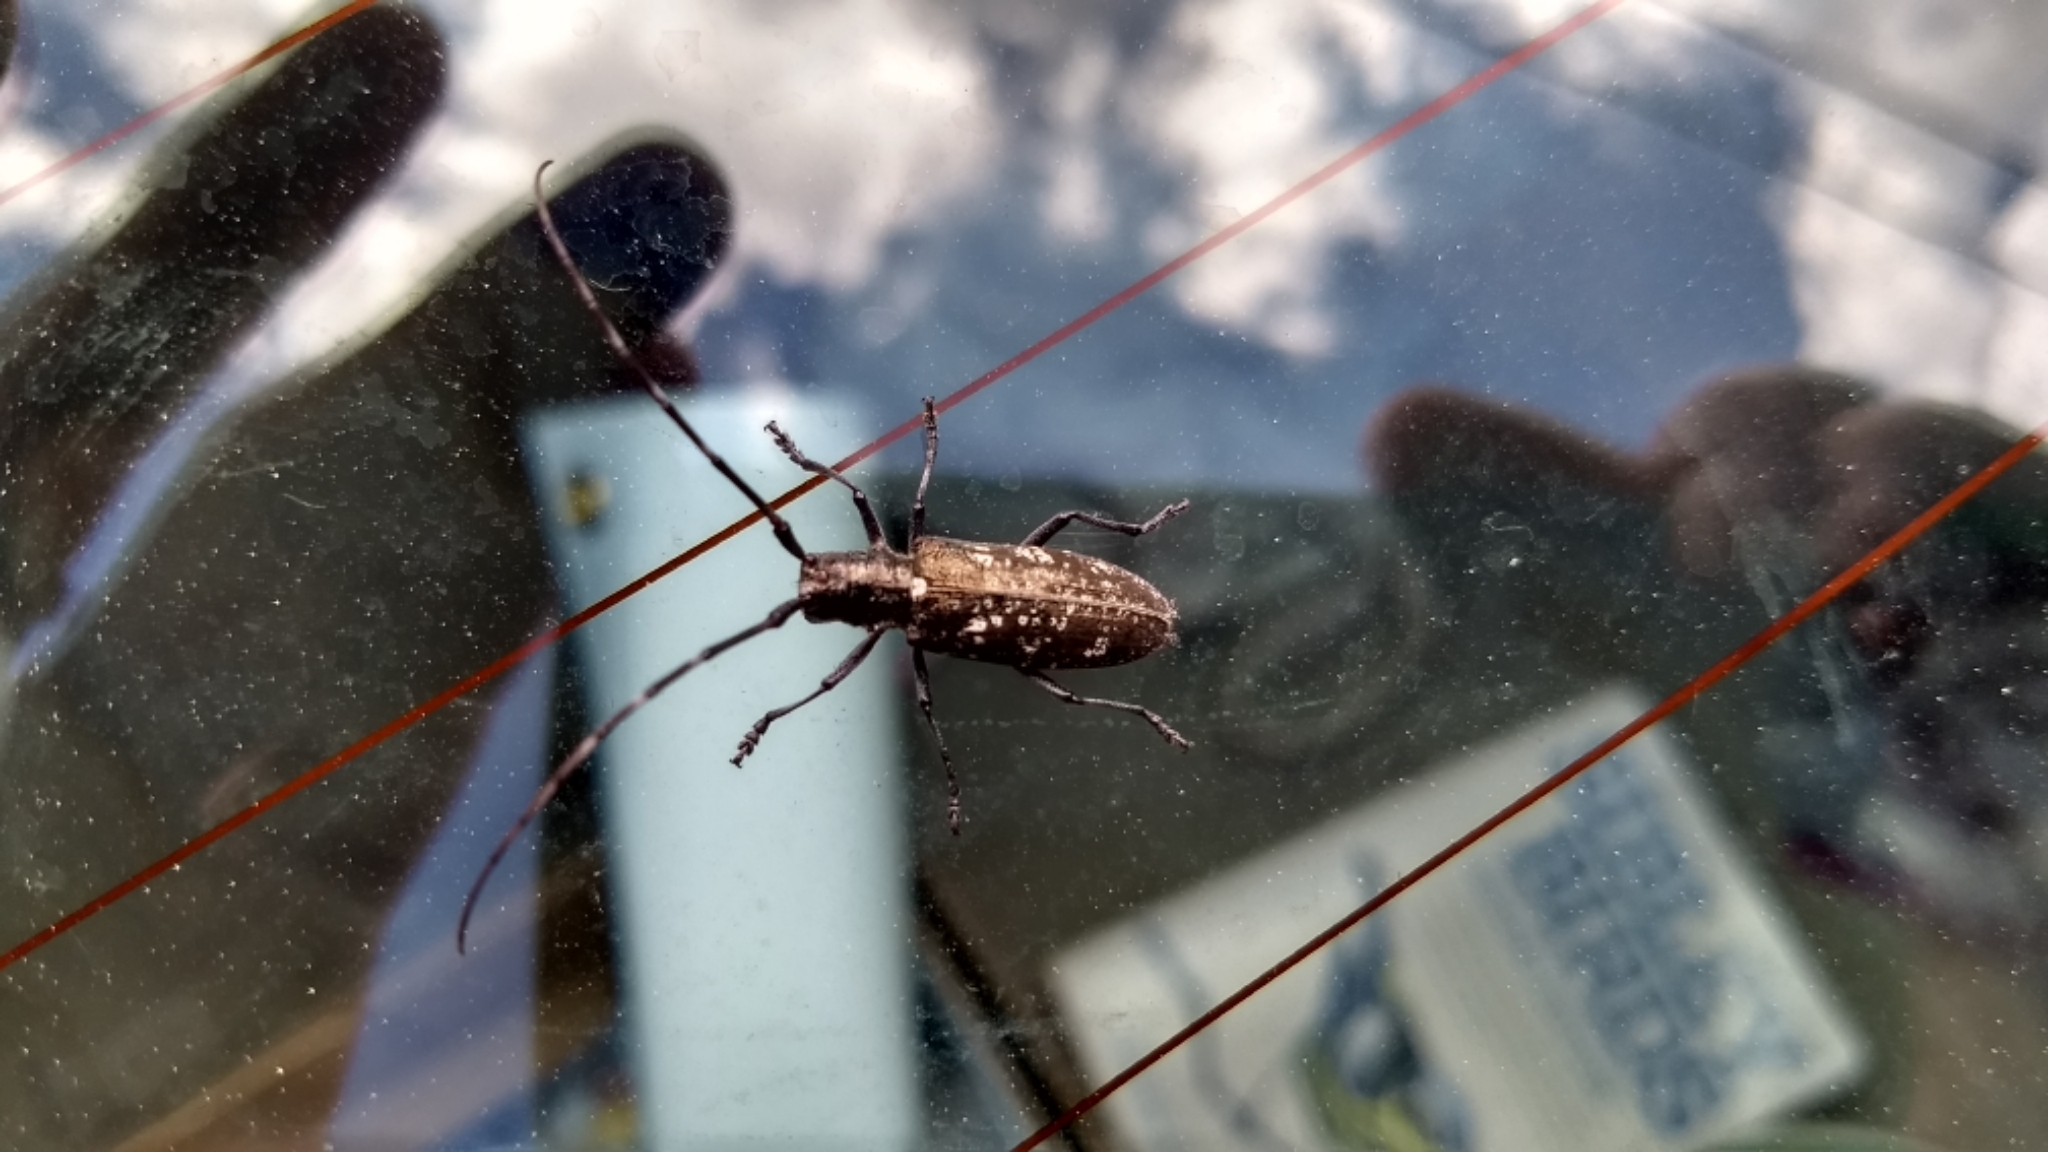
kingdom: Animalia
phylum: Arthropoda
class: Insecta
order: Coleoptera
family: Cerambycidae
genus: Monochamus
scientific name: Monochamus scutellatus
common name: White-spotted sawyer beetle
